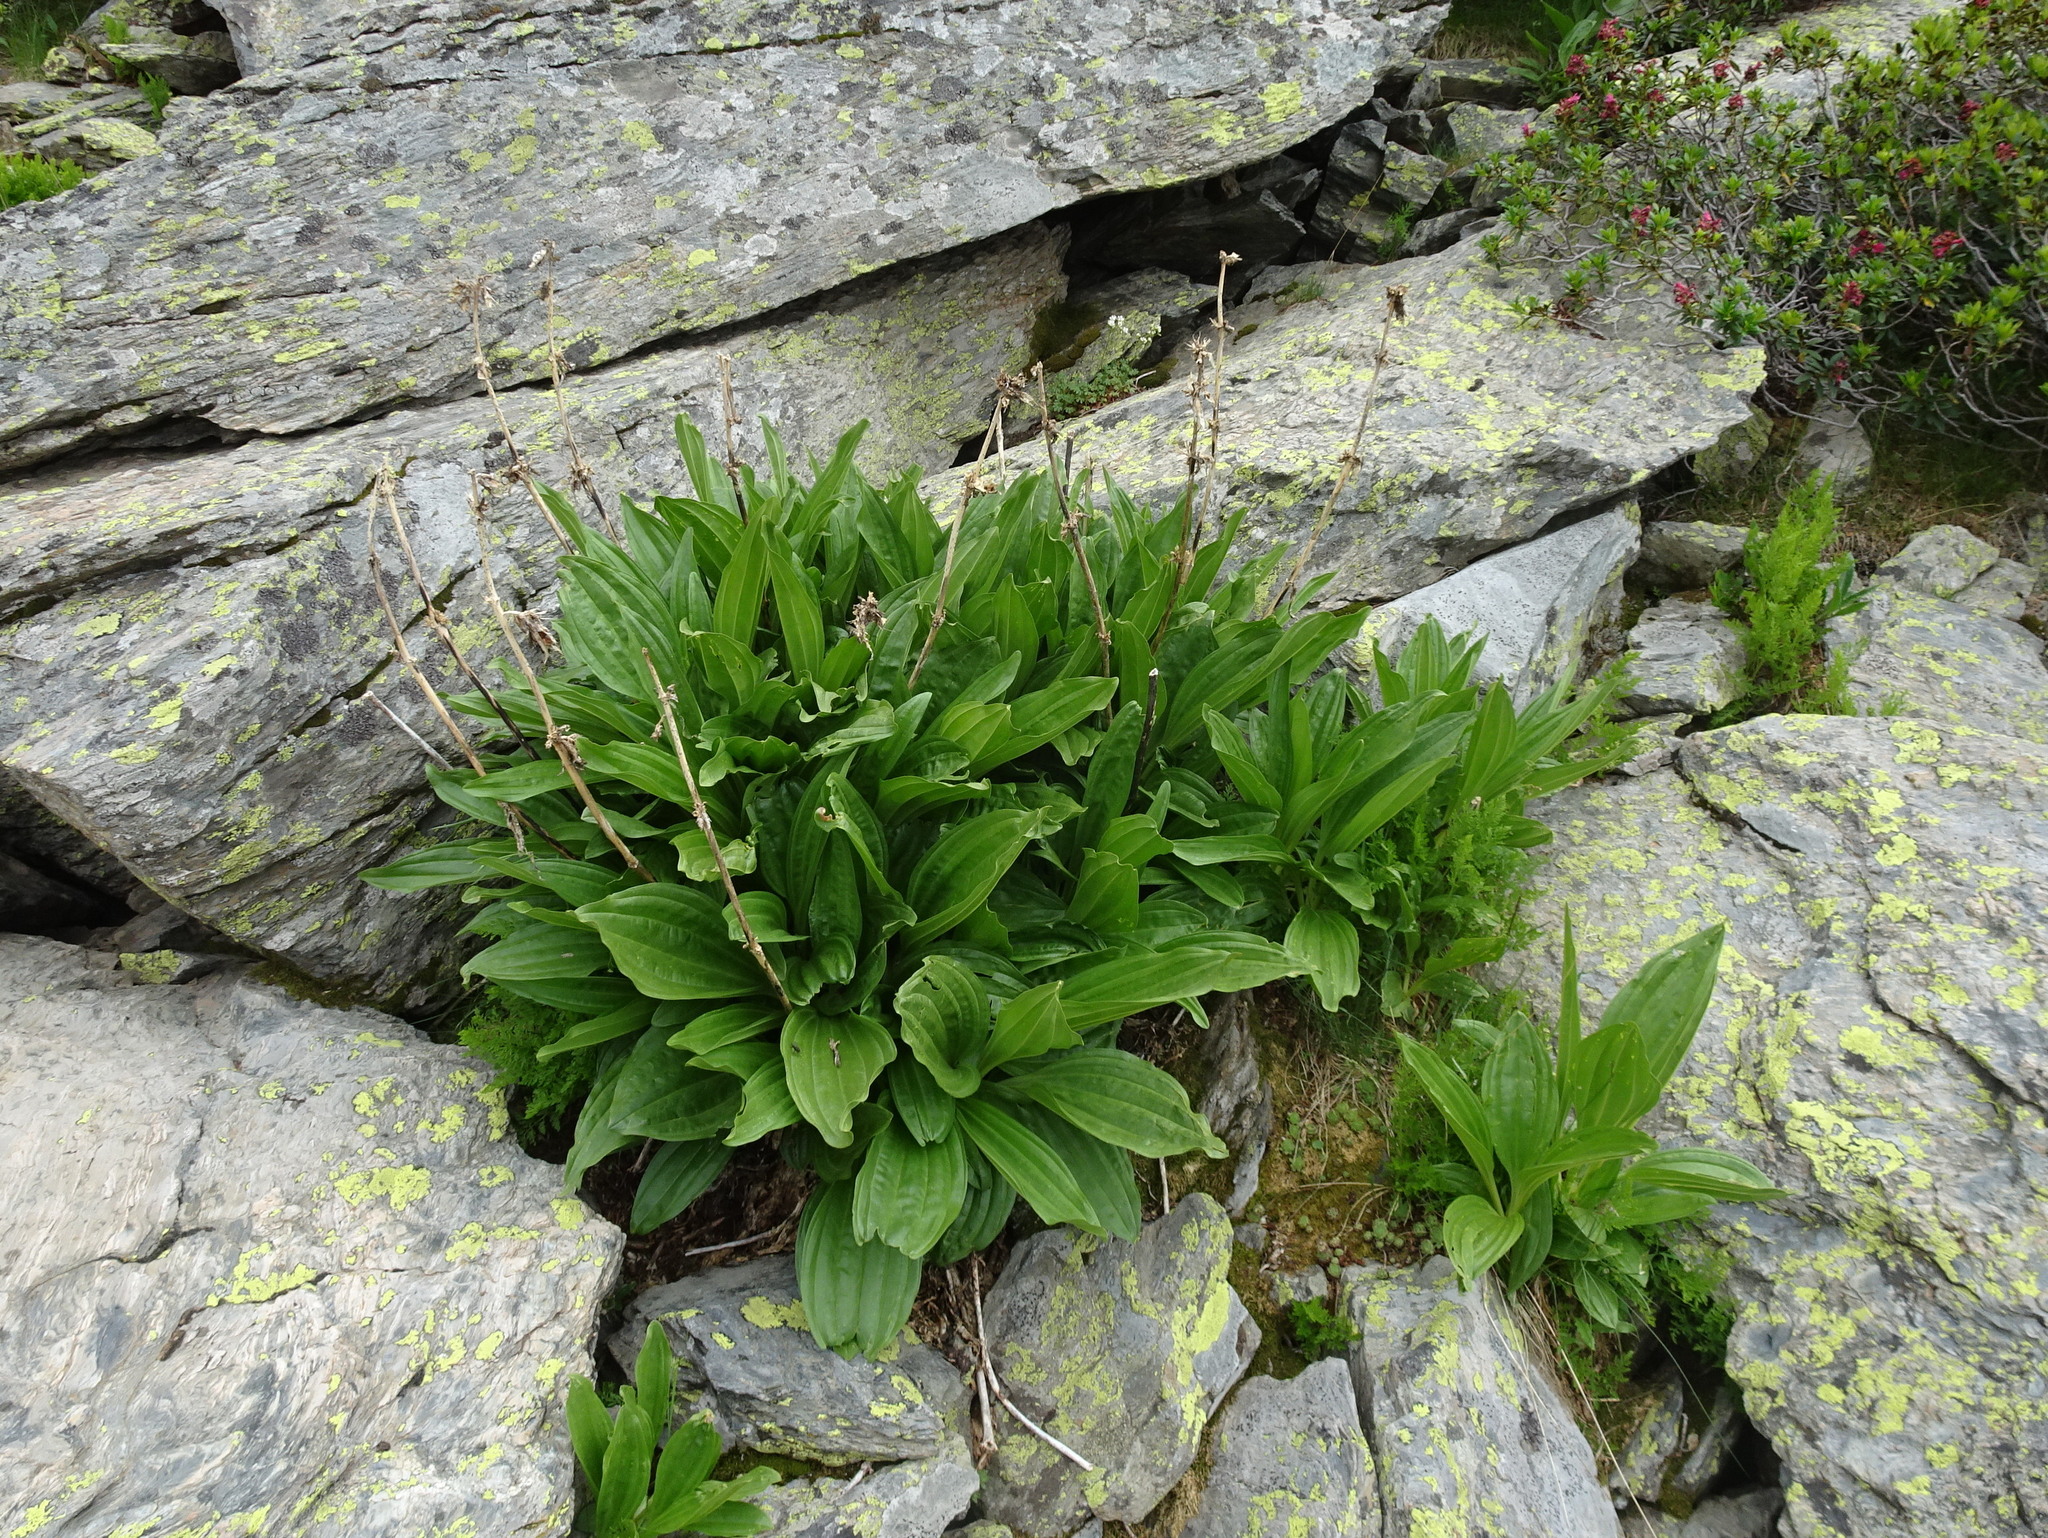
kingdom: Plantae
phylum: Tracheophyta
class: Liliopsida
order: Liliales
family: Melanthiaceae
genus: Veratrum
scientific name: Veratrum album
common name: White veratrum
